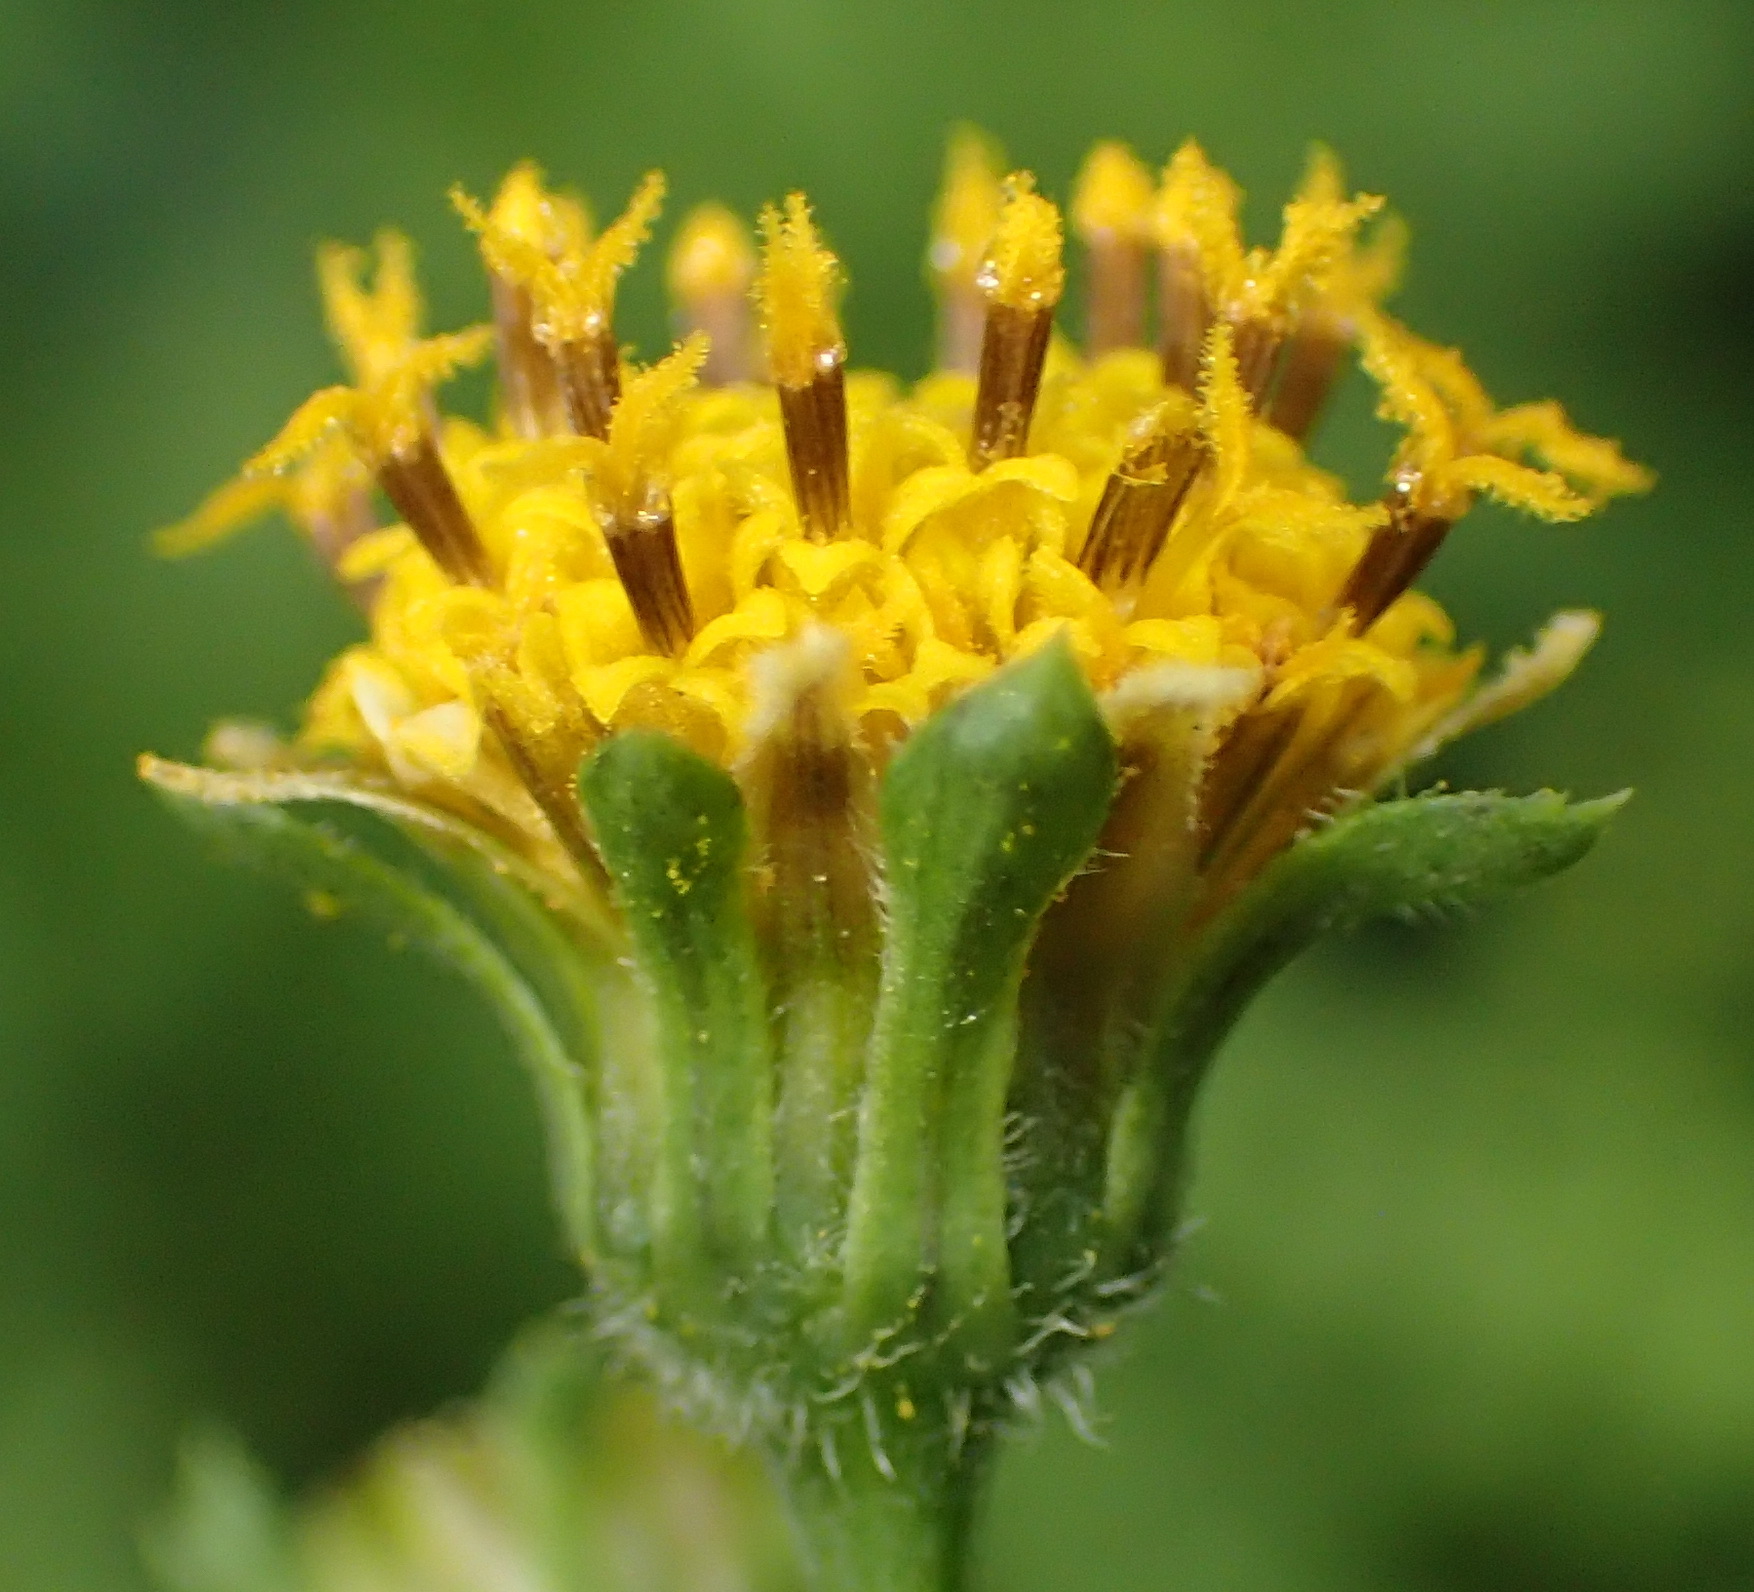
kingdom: Plantae
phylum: Tracheophyta
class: Magnoliopsida
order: Asterales
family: Asteraceae
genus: Bidens
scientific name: Bidens pilosa
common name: Black-jack
